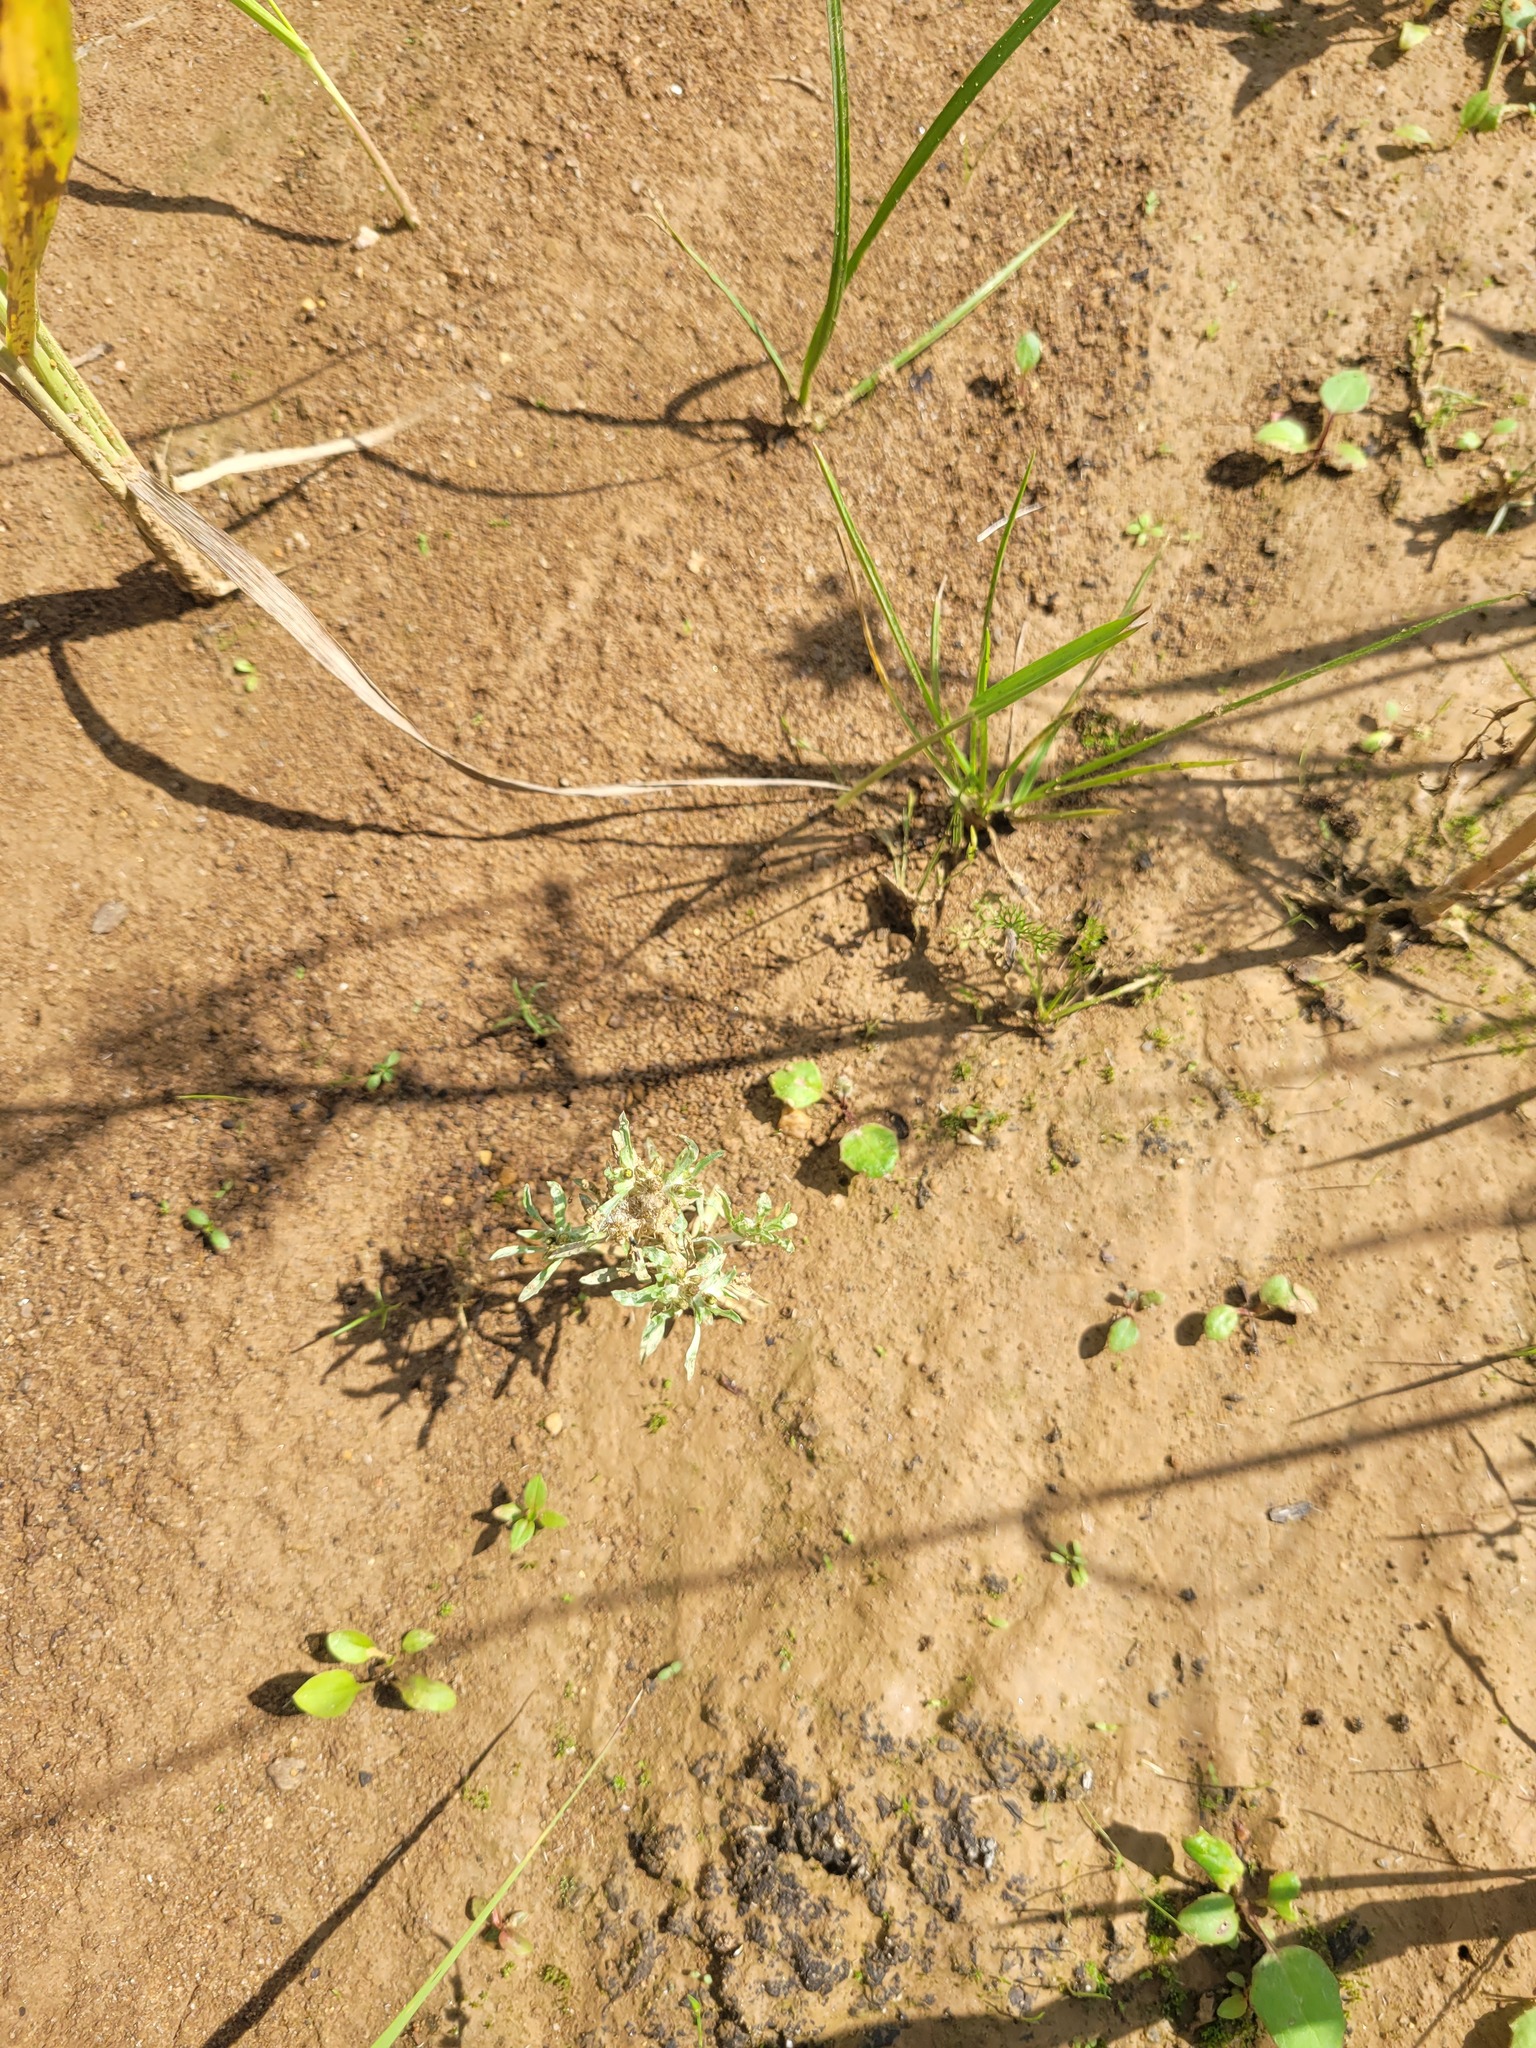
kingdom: Plantae
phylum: Tracheophyta
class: Magnoliopsida
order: Asterales
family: Asteraceae
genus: Gnaphalium
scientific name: Gnaphalium uliginosum
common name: Marsh cudweed
